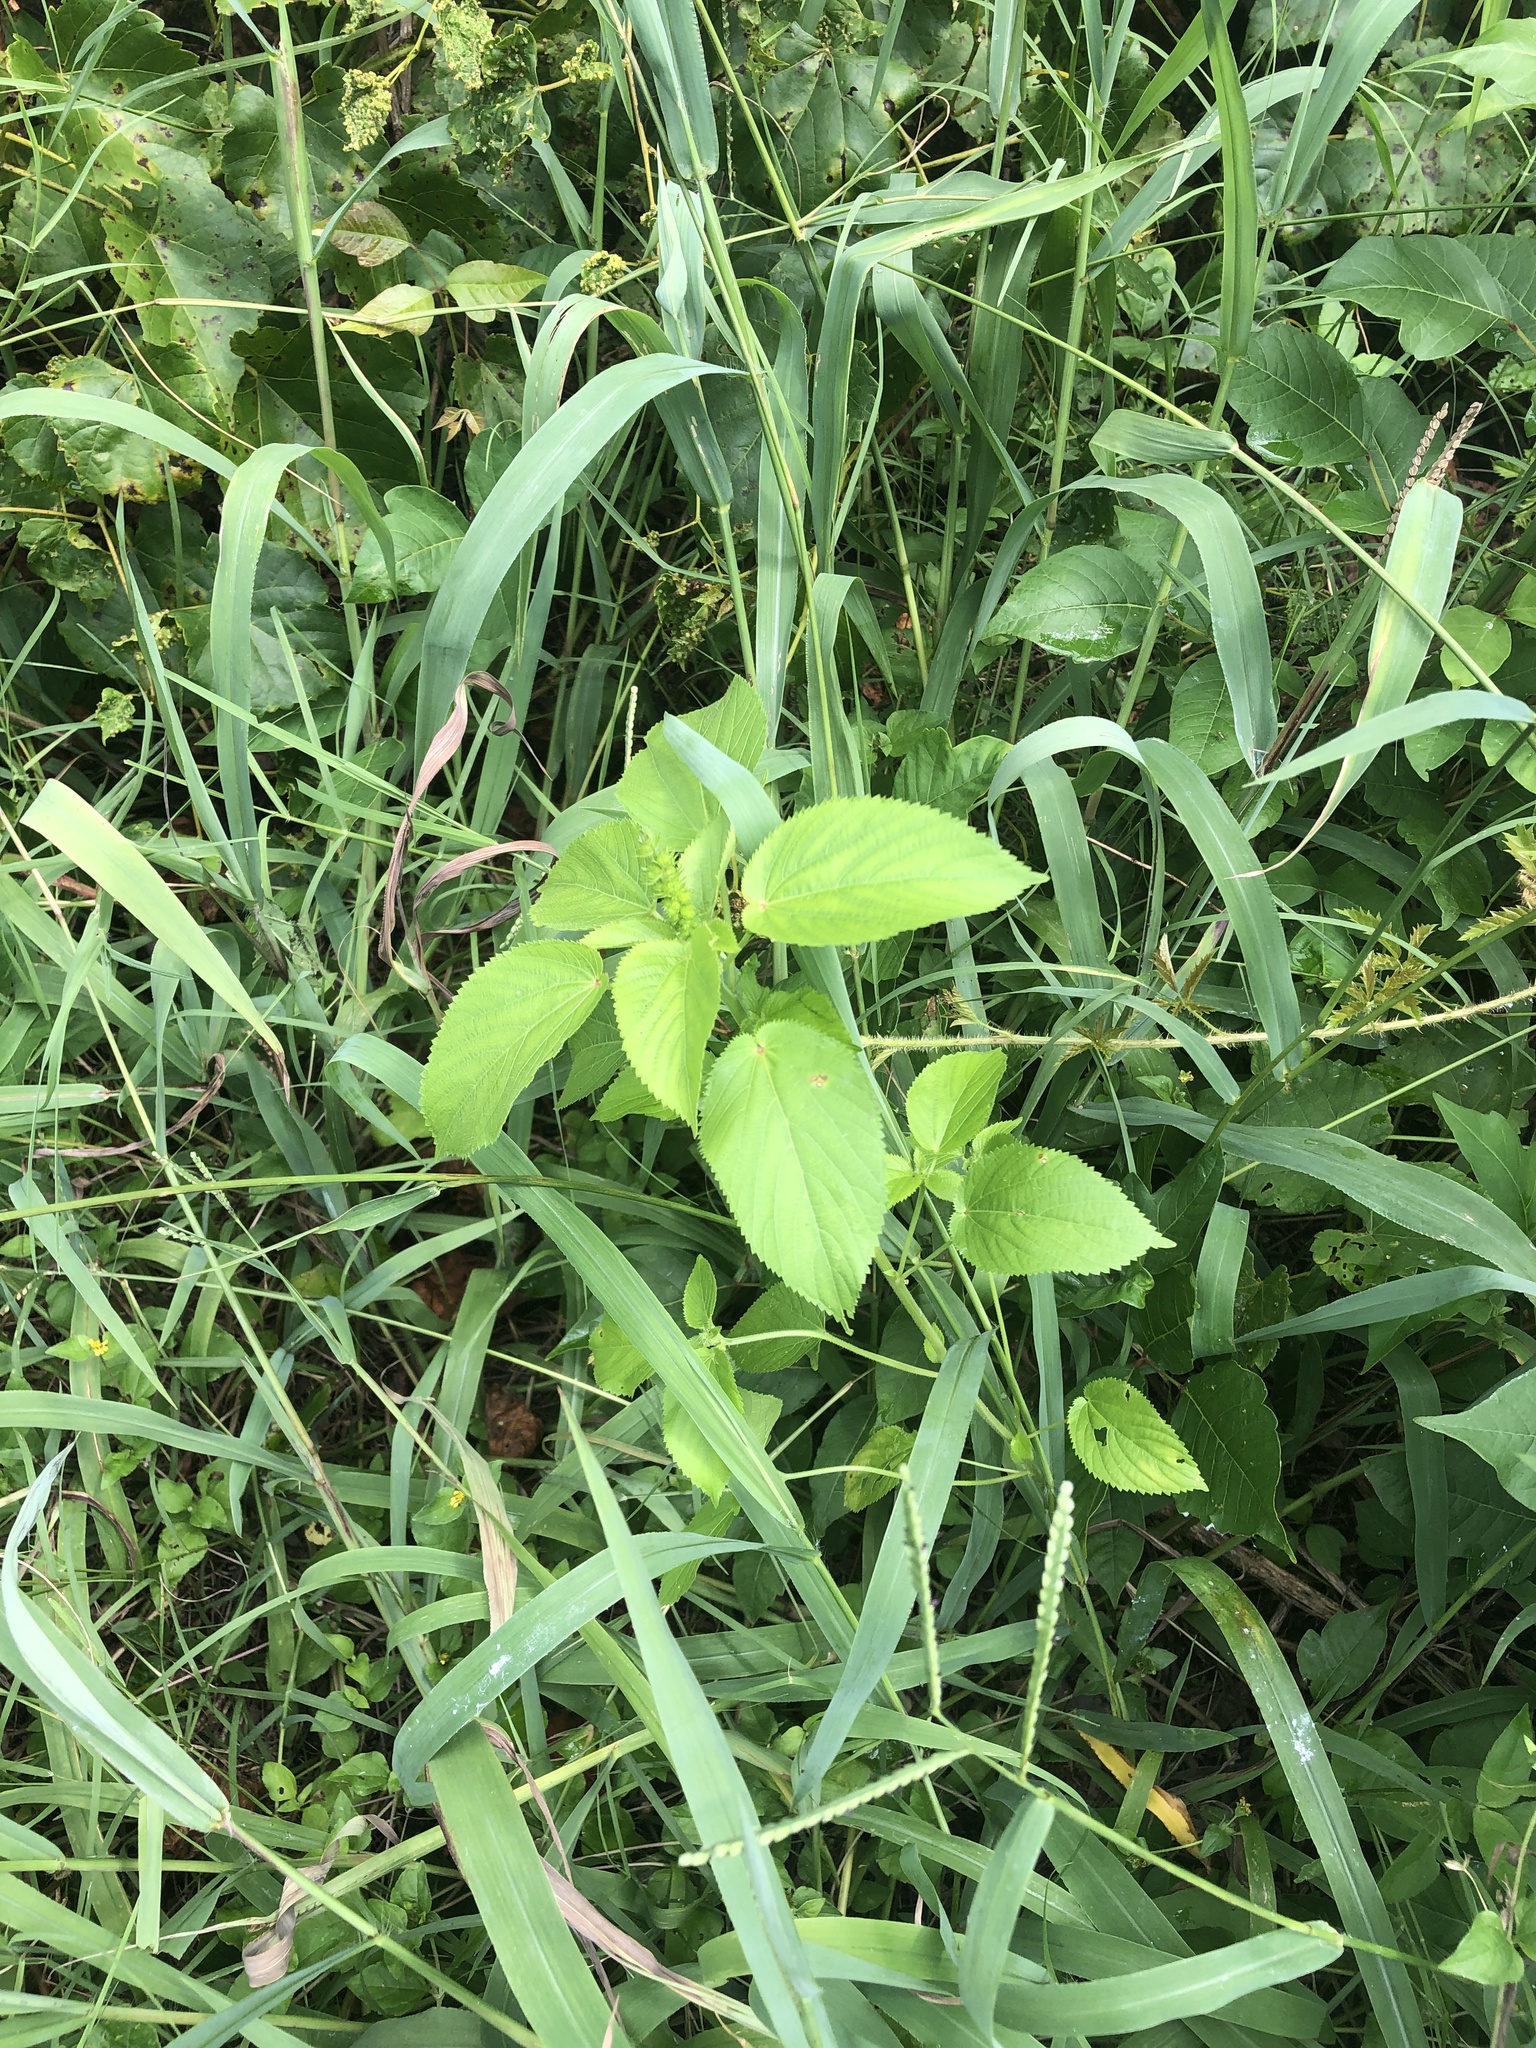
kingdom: Plantae
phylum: Tracheophyta
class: Magnoliopsida
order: Malpighiales
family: Euphorbiaceae
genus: Acalypha
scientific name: Acalypha ostryifolia
